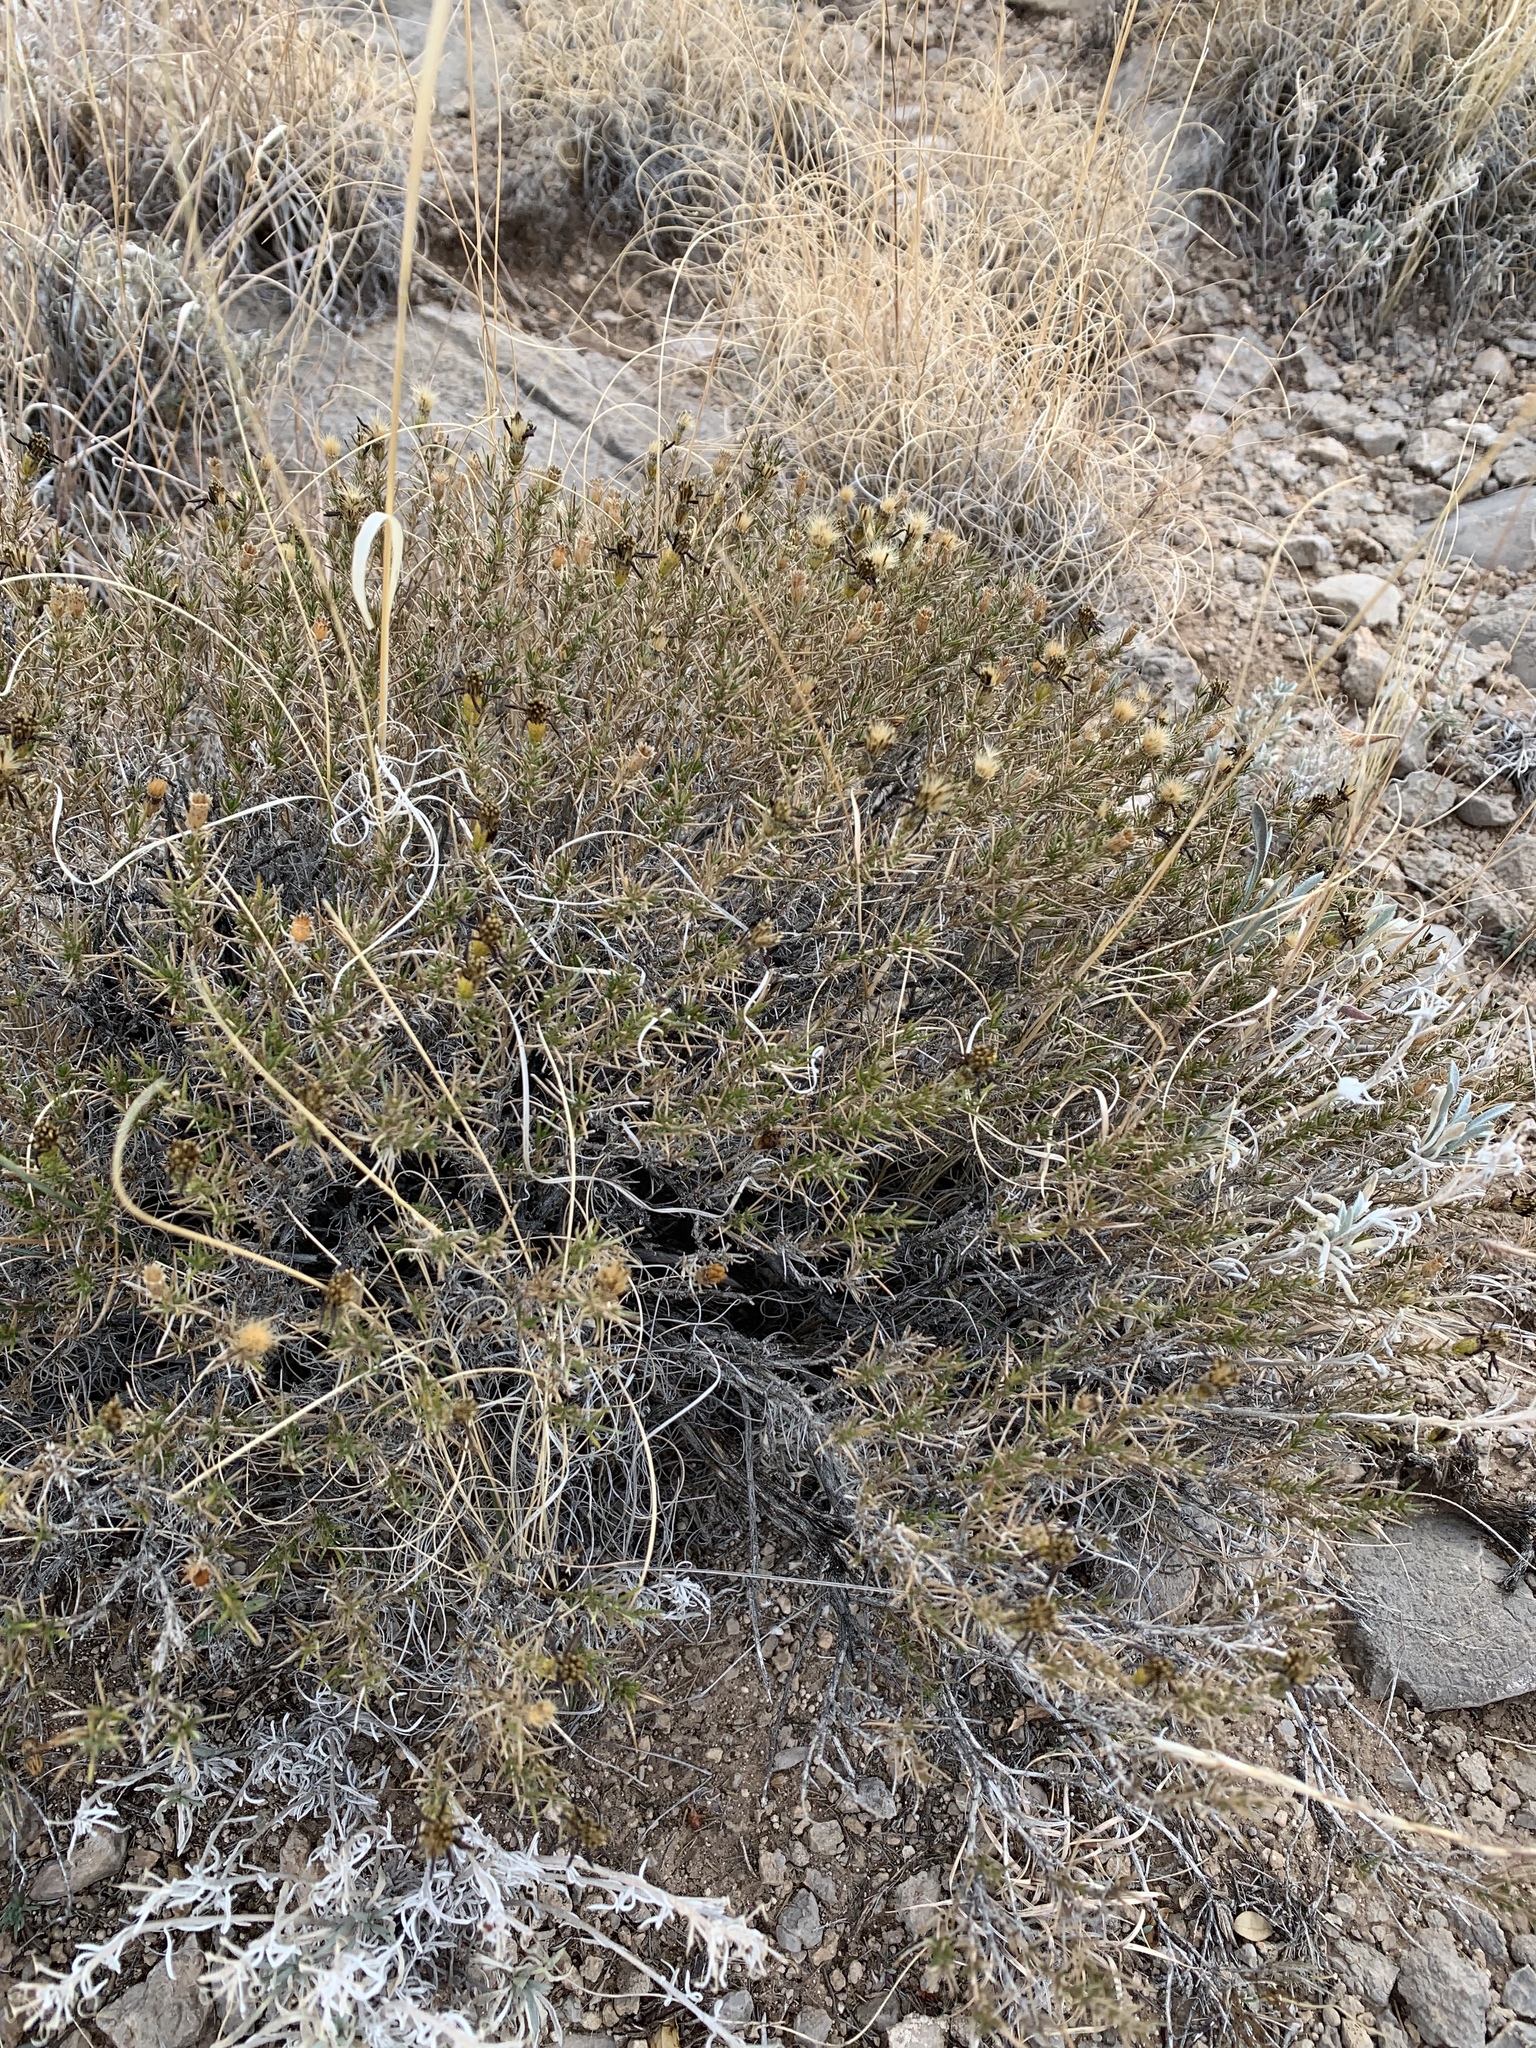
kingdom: Plantae
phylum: Tracheophyta
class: Magnoliopsida
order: Asterales
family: Asteraceae
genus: Thymophylla
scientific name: Thymophylla acerosa
